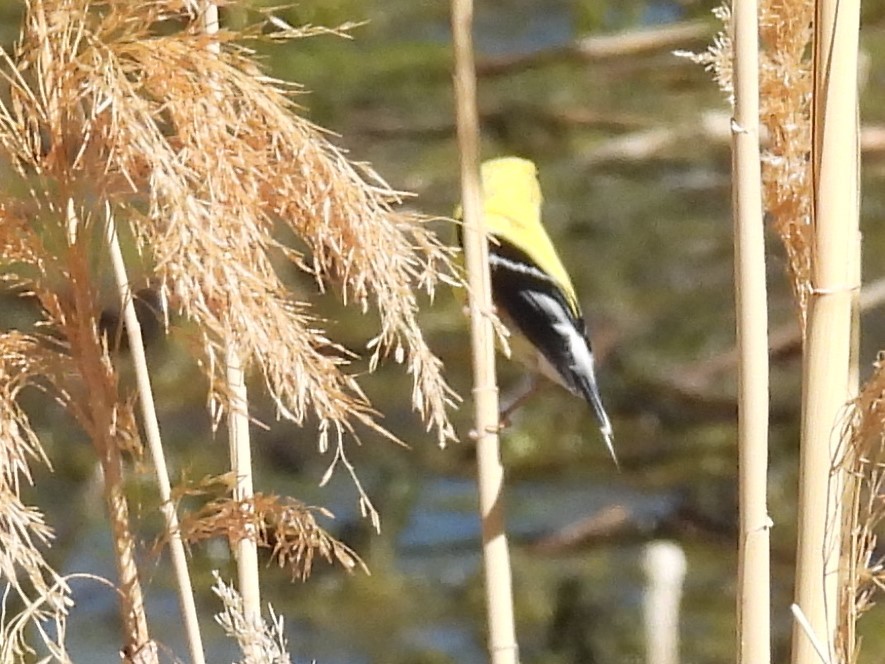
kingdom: Animalia
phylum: Chordata
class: Aves
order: Passeriformes
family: Fringillidae
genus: Spinus
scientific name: Spinus tristis
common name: American goldfinch
